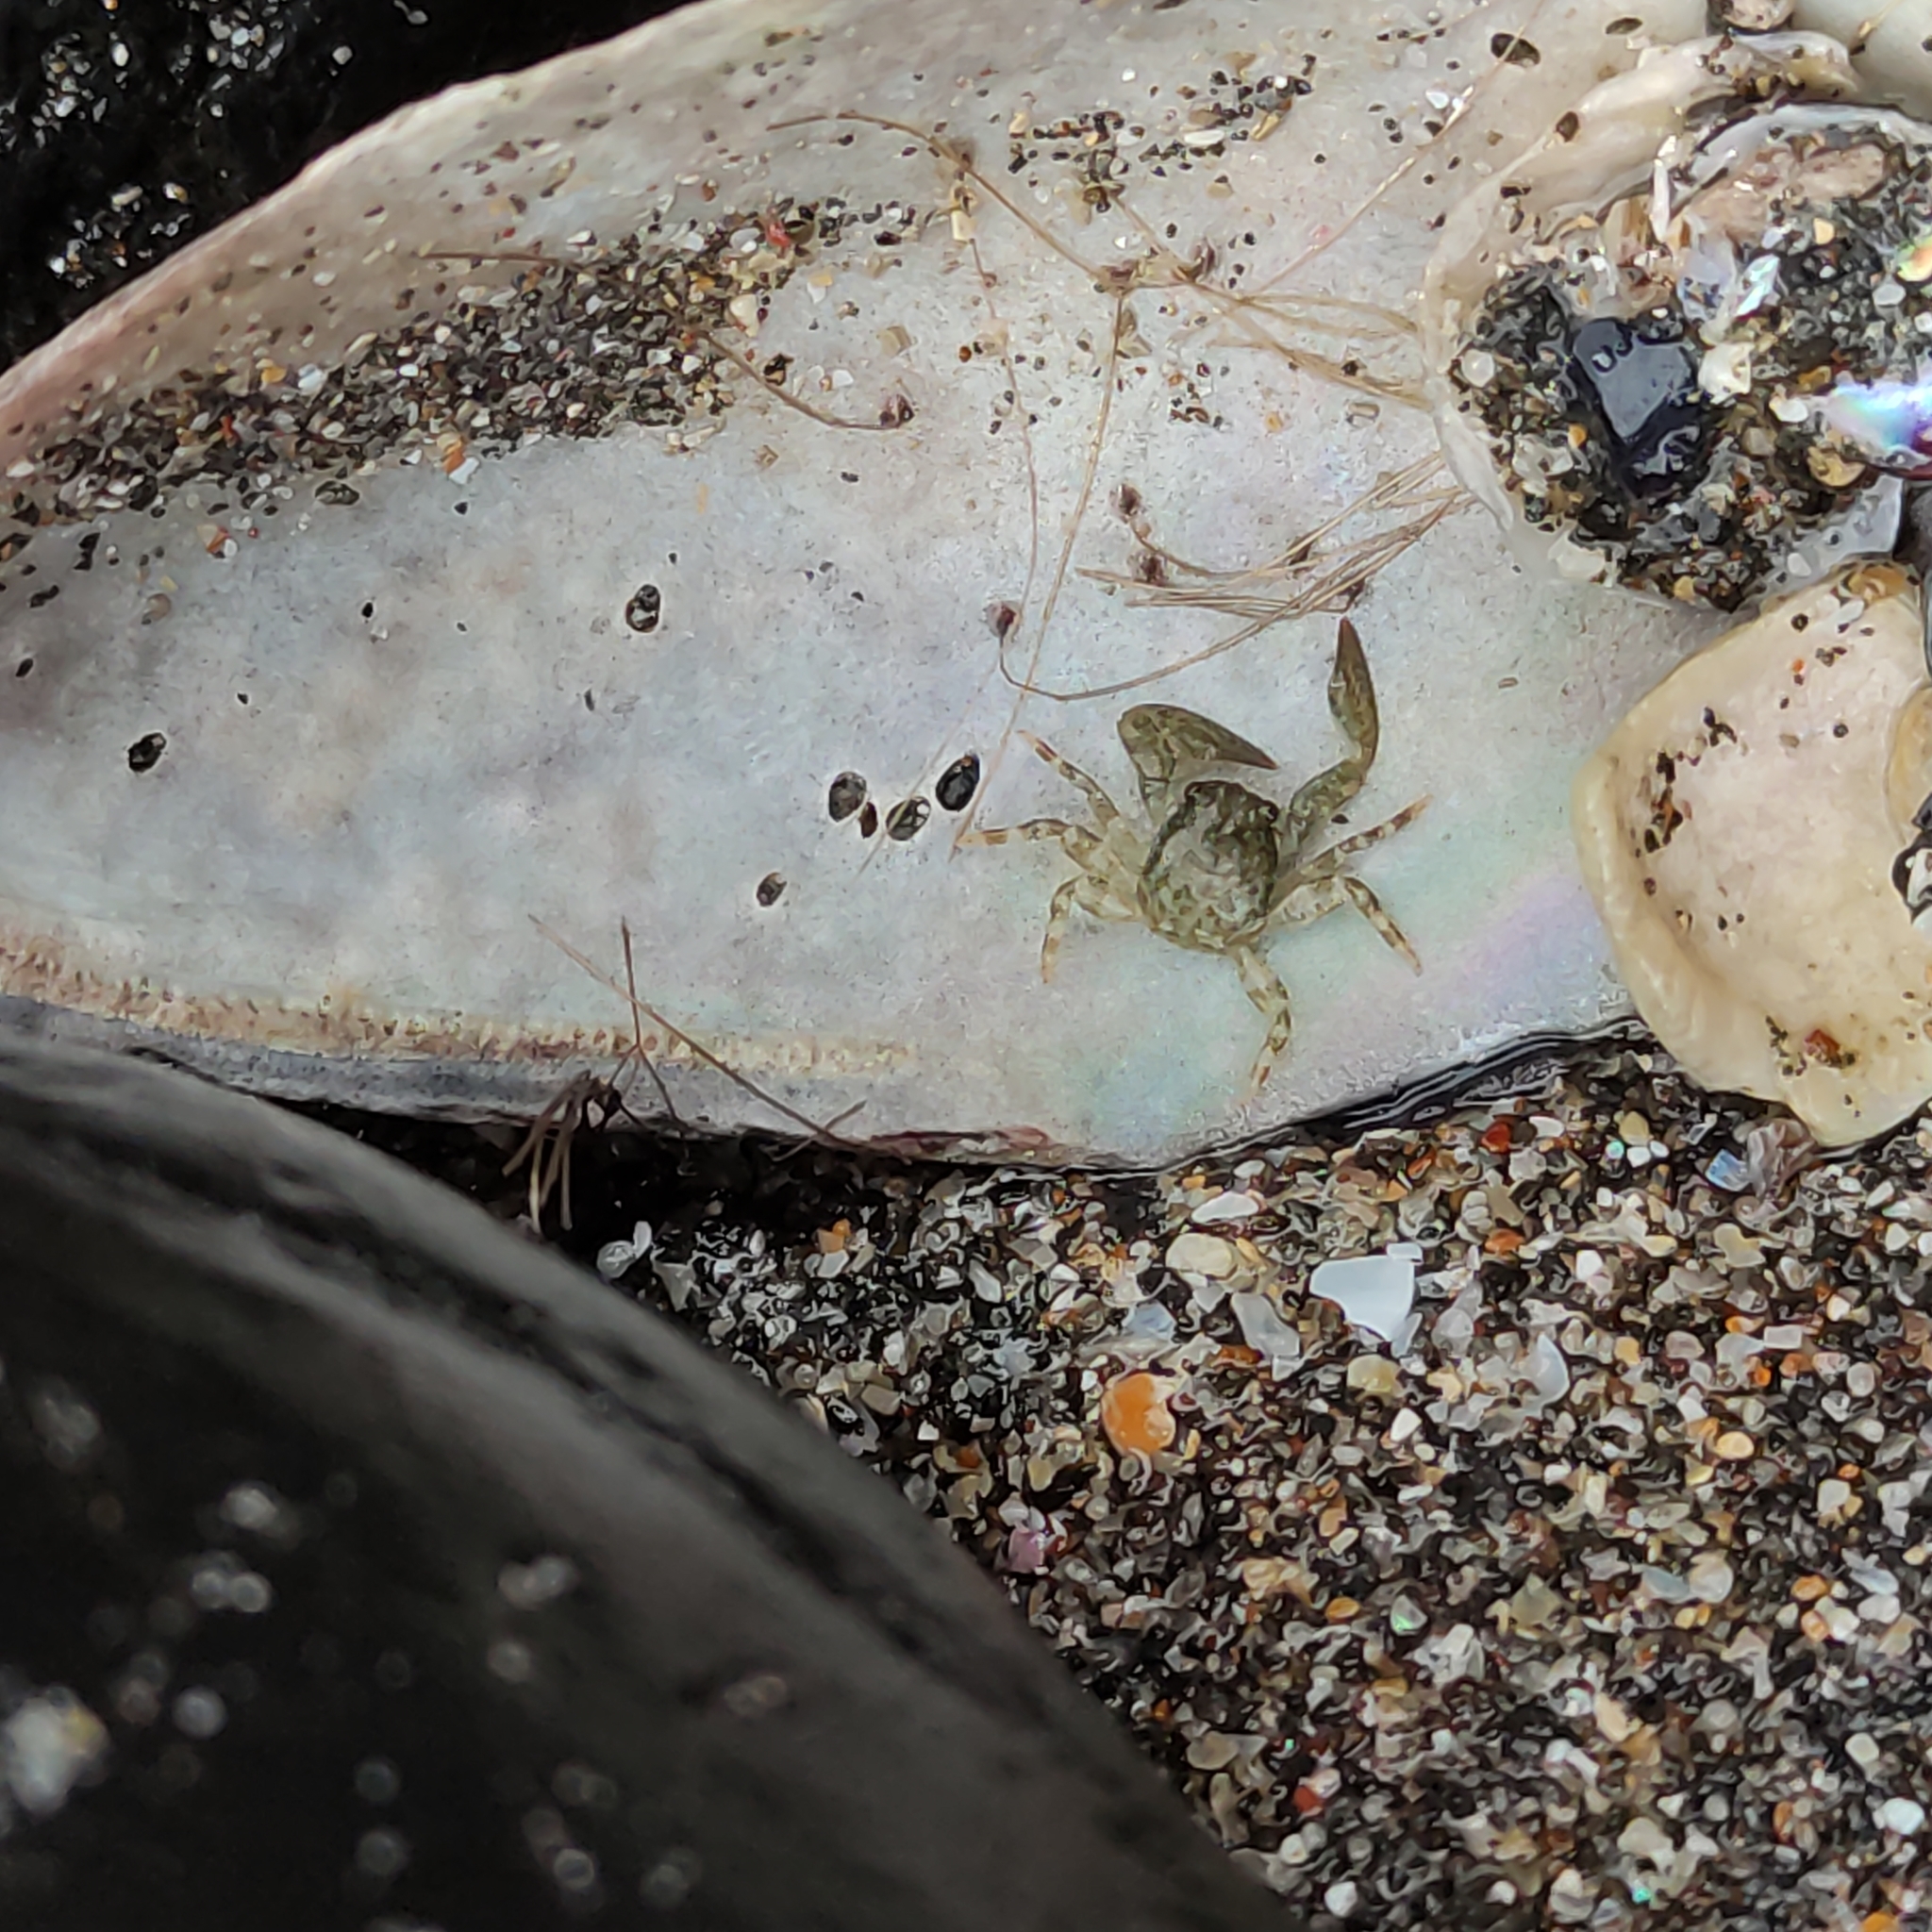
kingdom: Animalia
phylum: Arthropoda
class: Malacostraca
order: Decapoda
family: Porcellanidae
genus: Petrolisthes
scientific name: Petrolisthes elongatus
